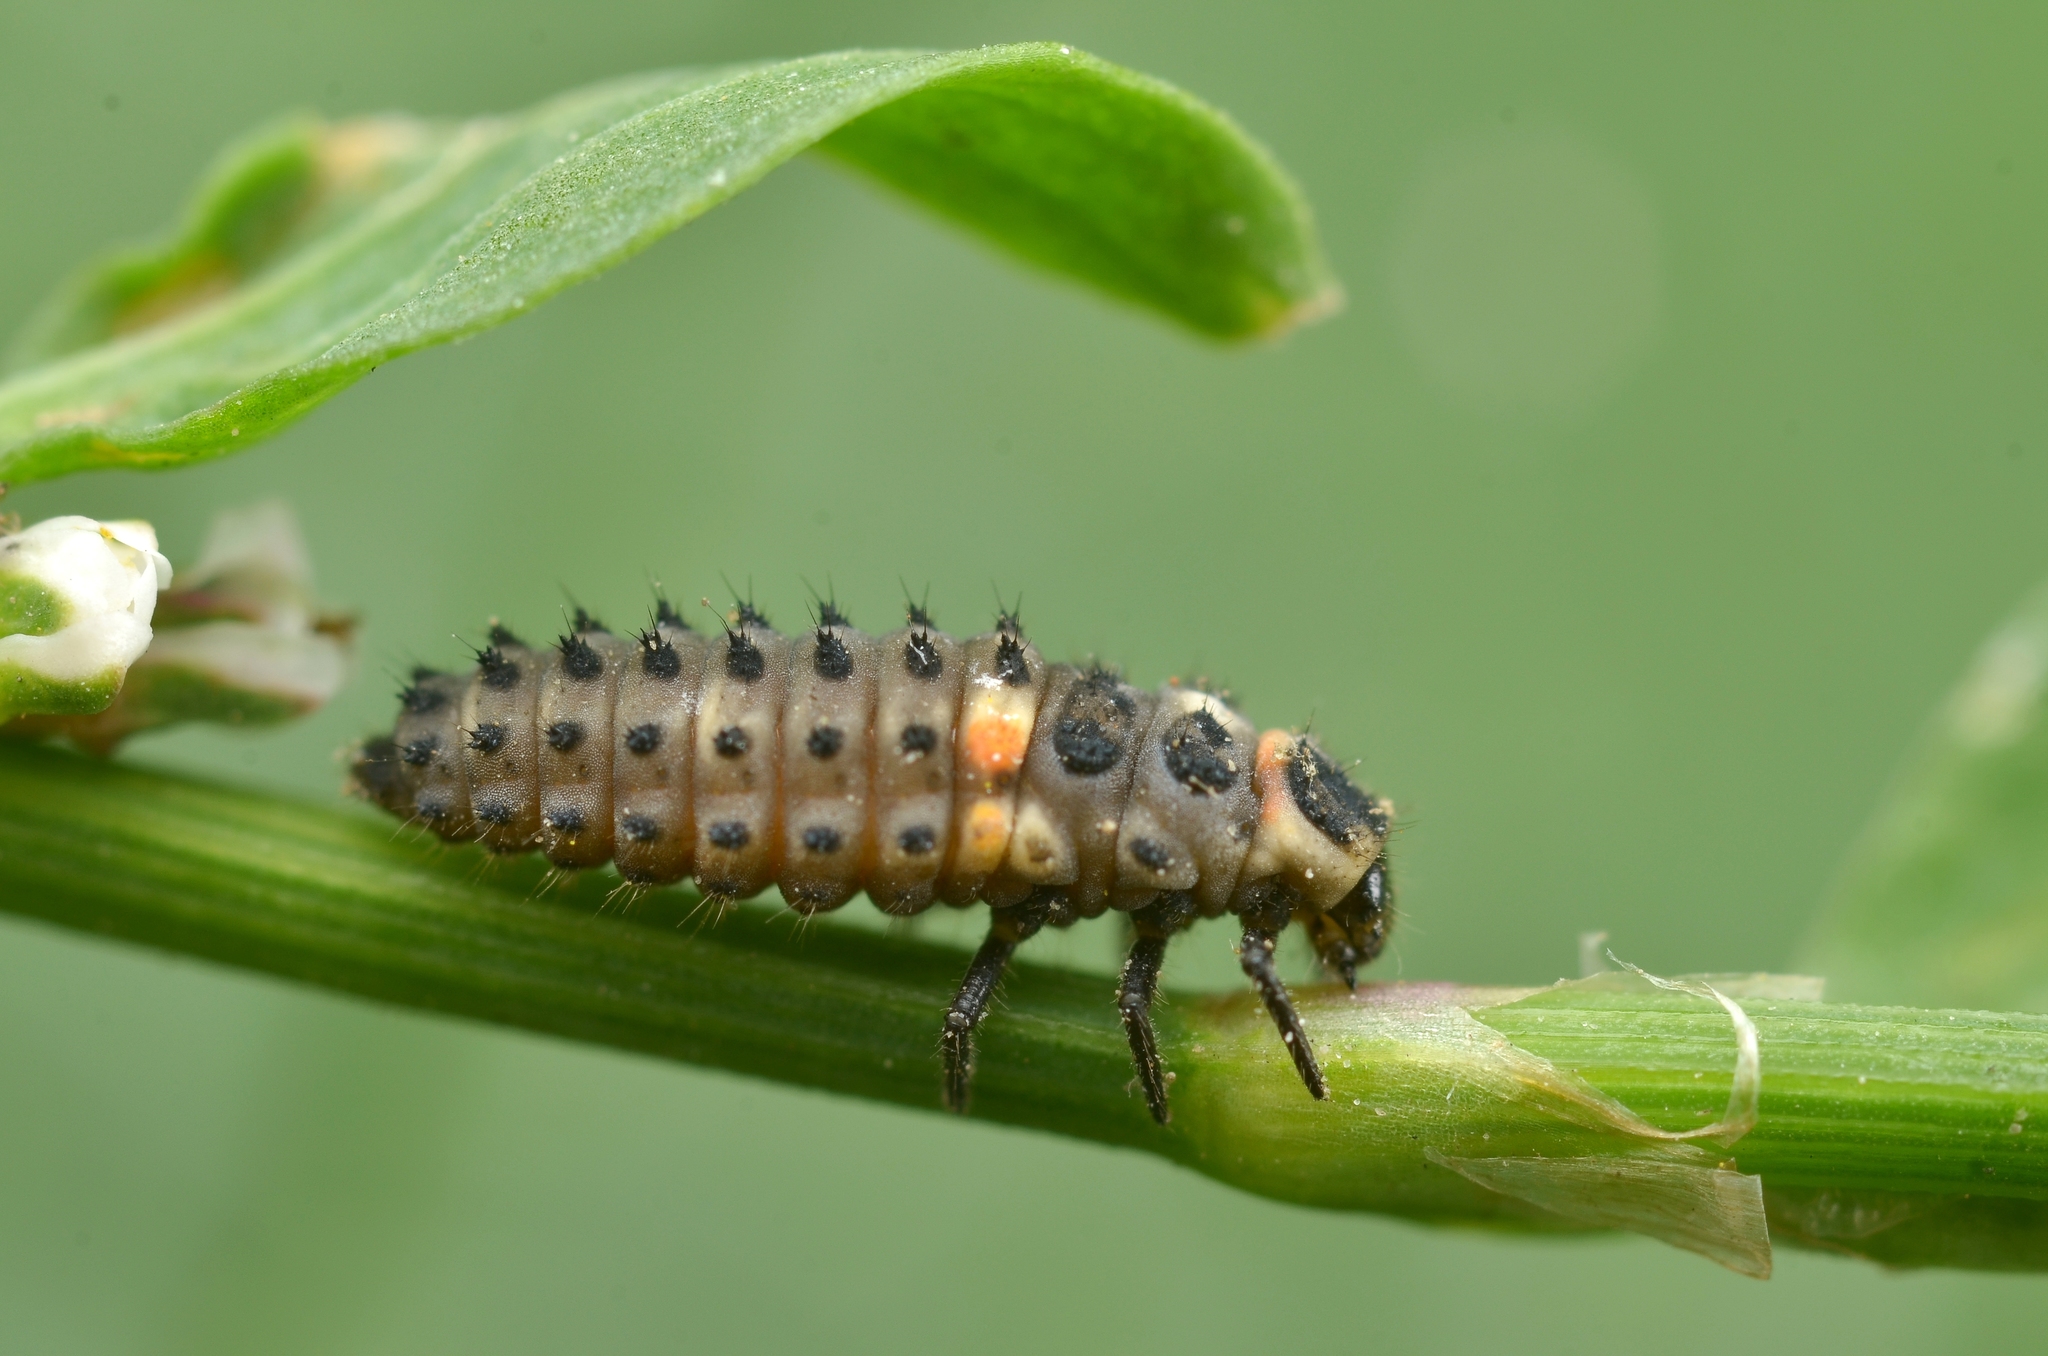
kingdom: Animalia
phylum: Arthropoda
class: Insecta
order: Coleoptera
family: Coccinellidae
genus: Hippodamia
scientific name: Hippodamia variegata
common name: Ladybird beetle
